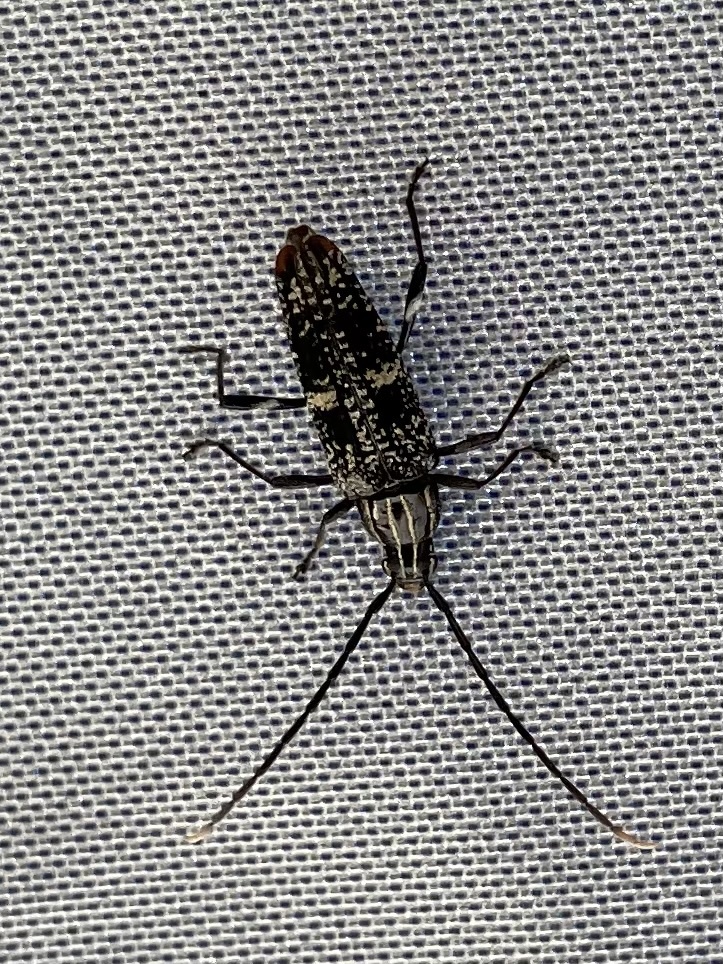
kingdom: Animalia
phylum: Arthropoda
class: Insecta
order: Coleoptera
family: Cerambycidae
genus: Coptomma
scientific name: Coptomma variegatum
